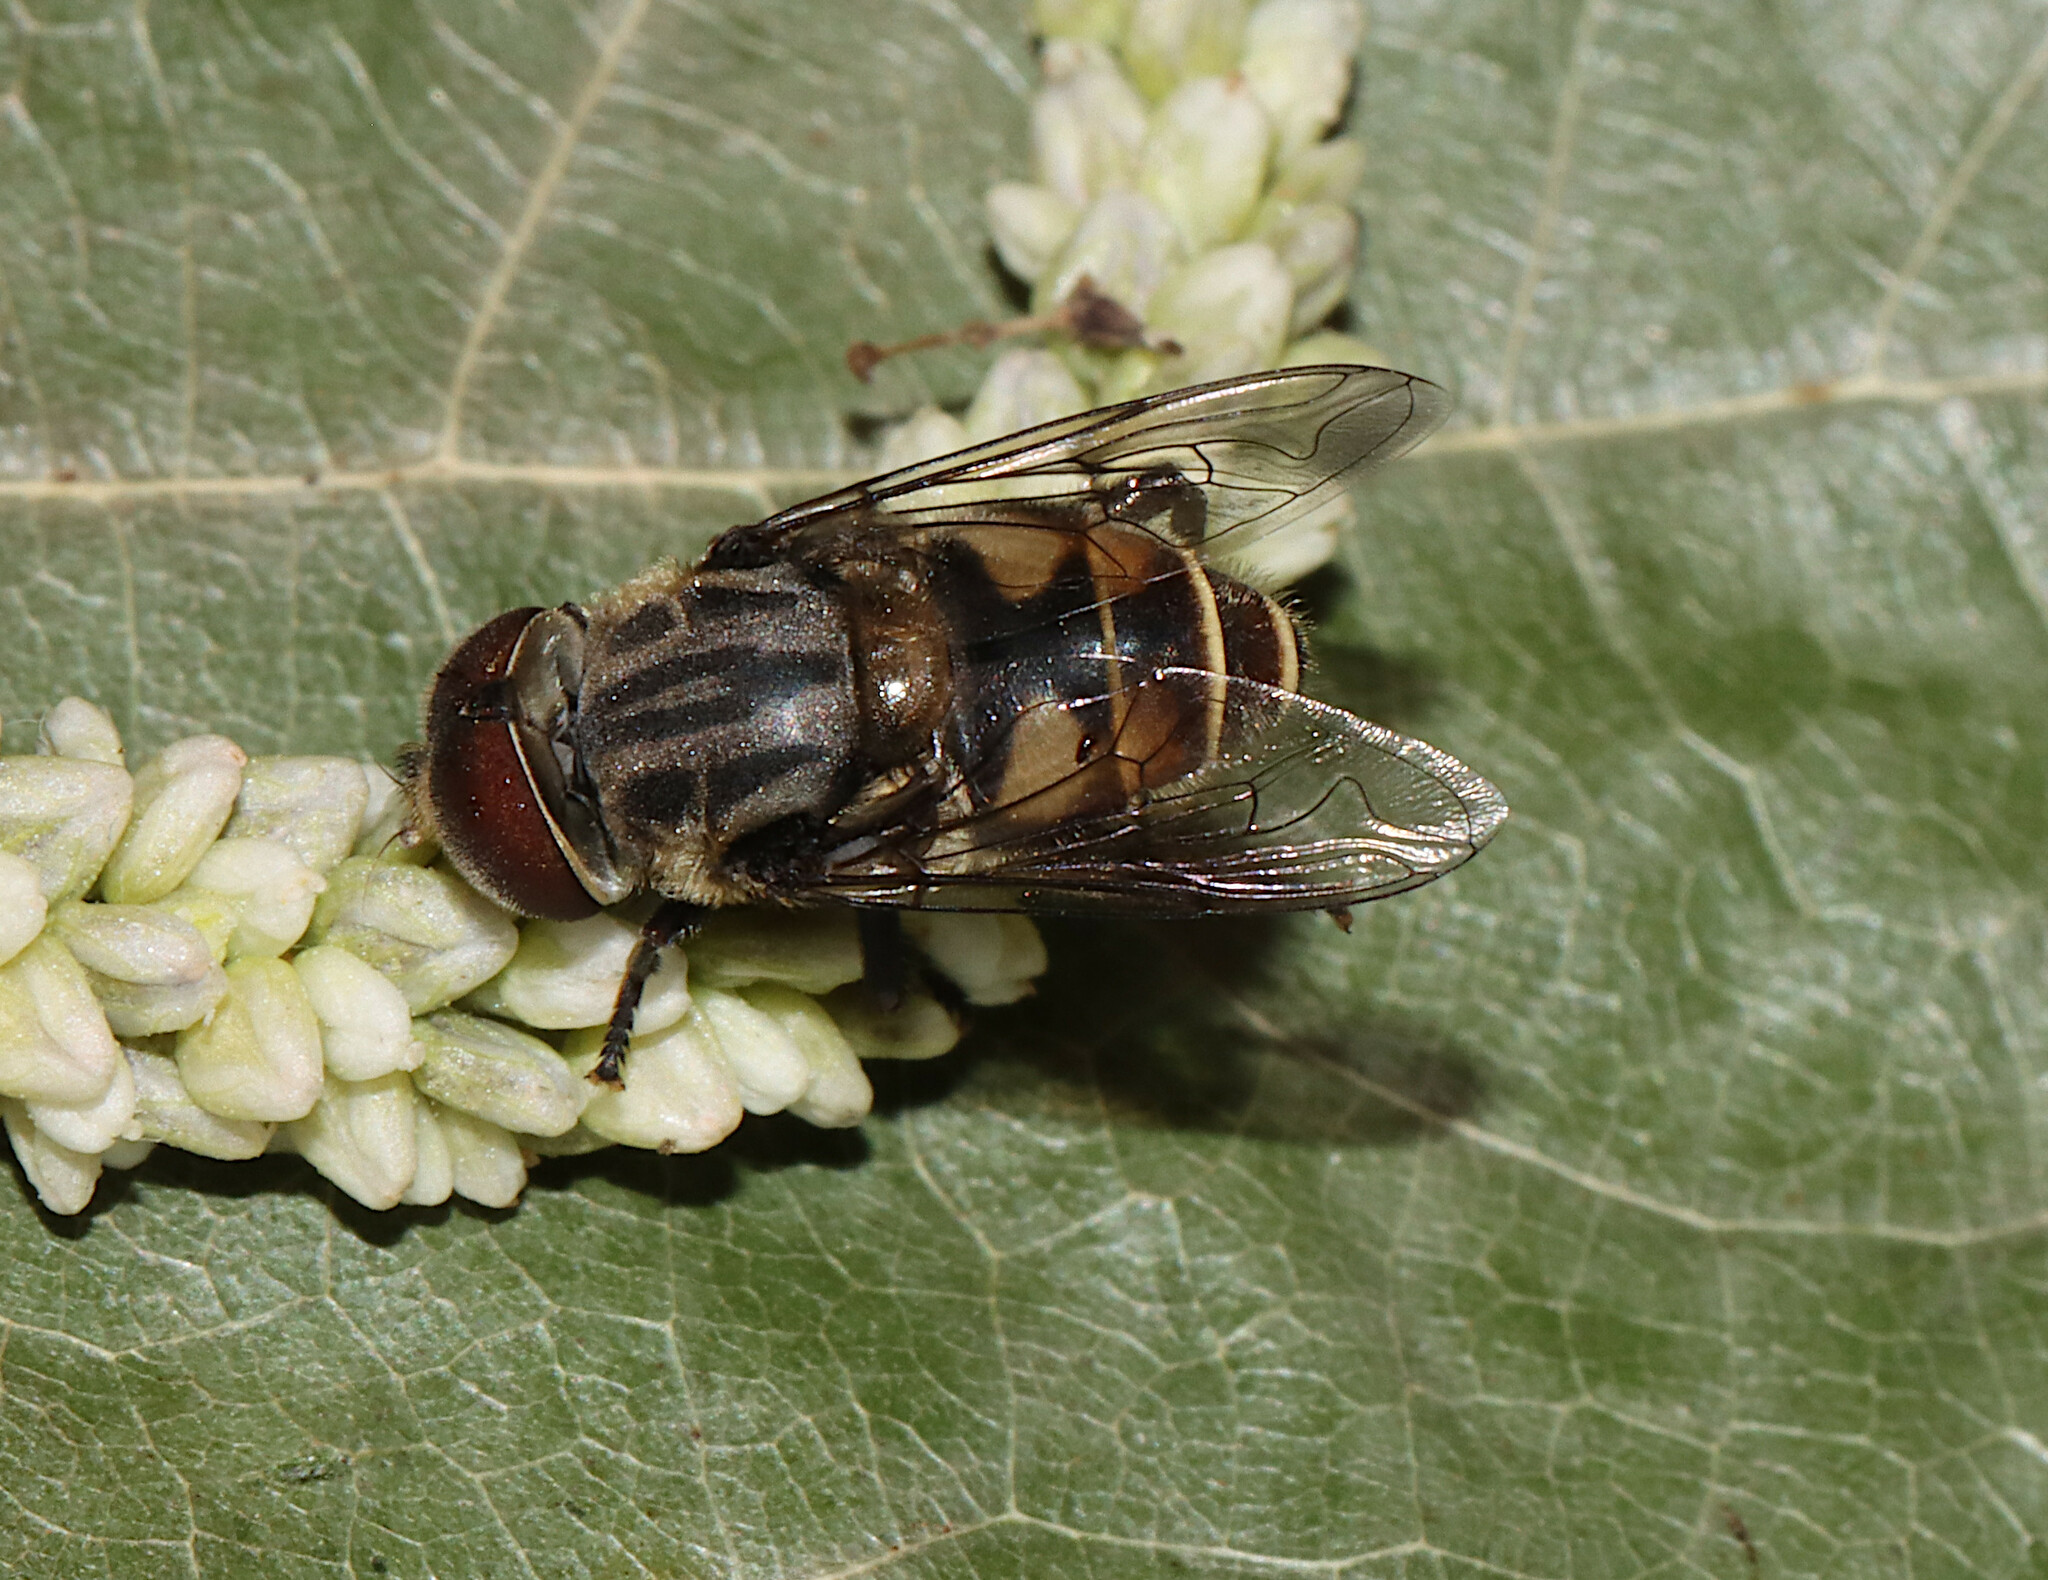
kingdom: Animalia
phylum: Arthropoda
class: Insecta
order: Diptera
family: Syrphidae
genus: Palpada
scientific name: Palpada furcata
